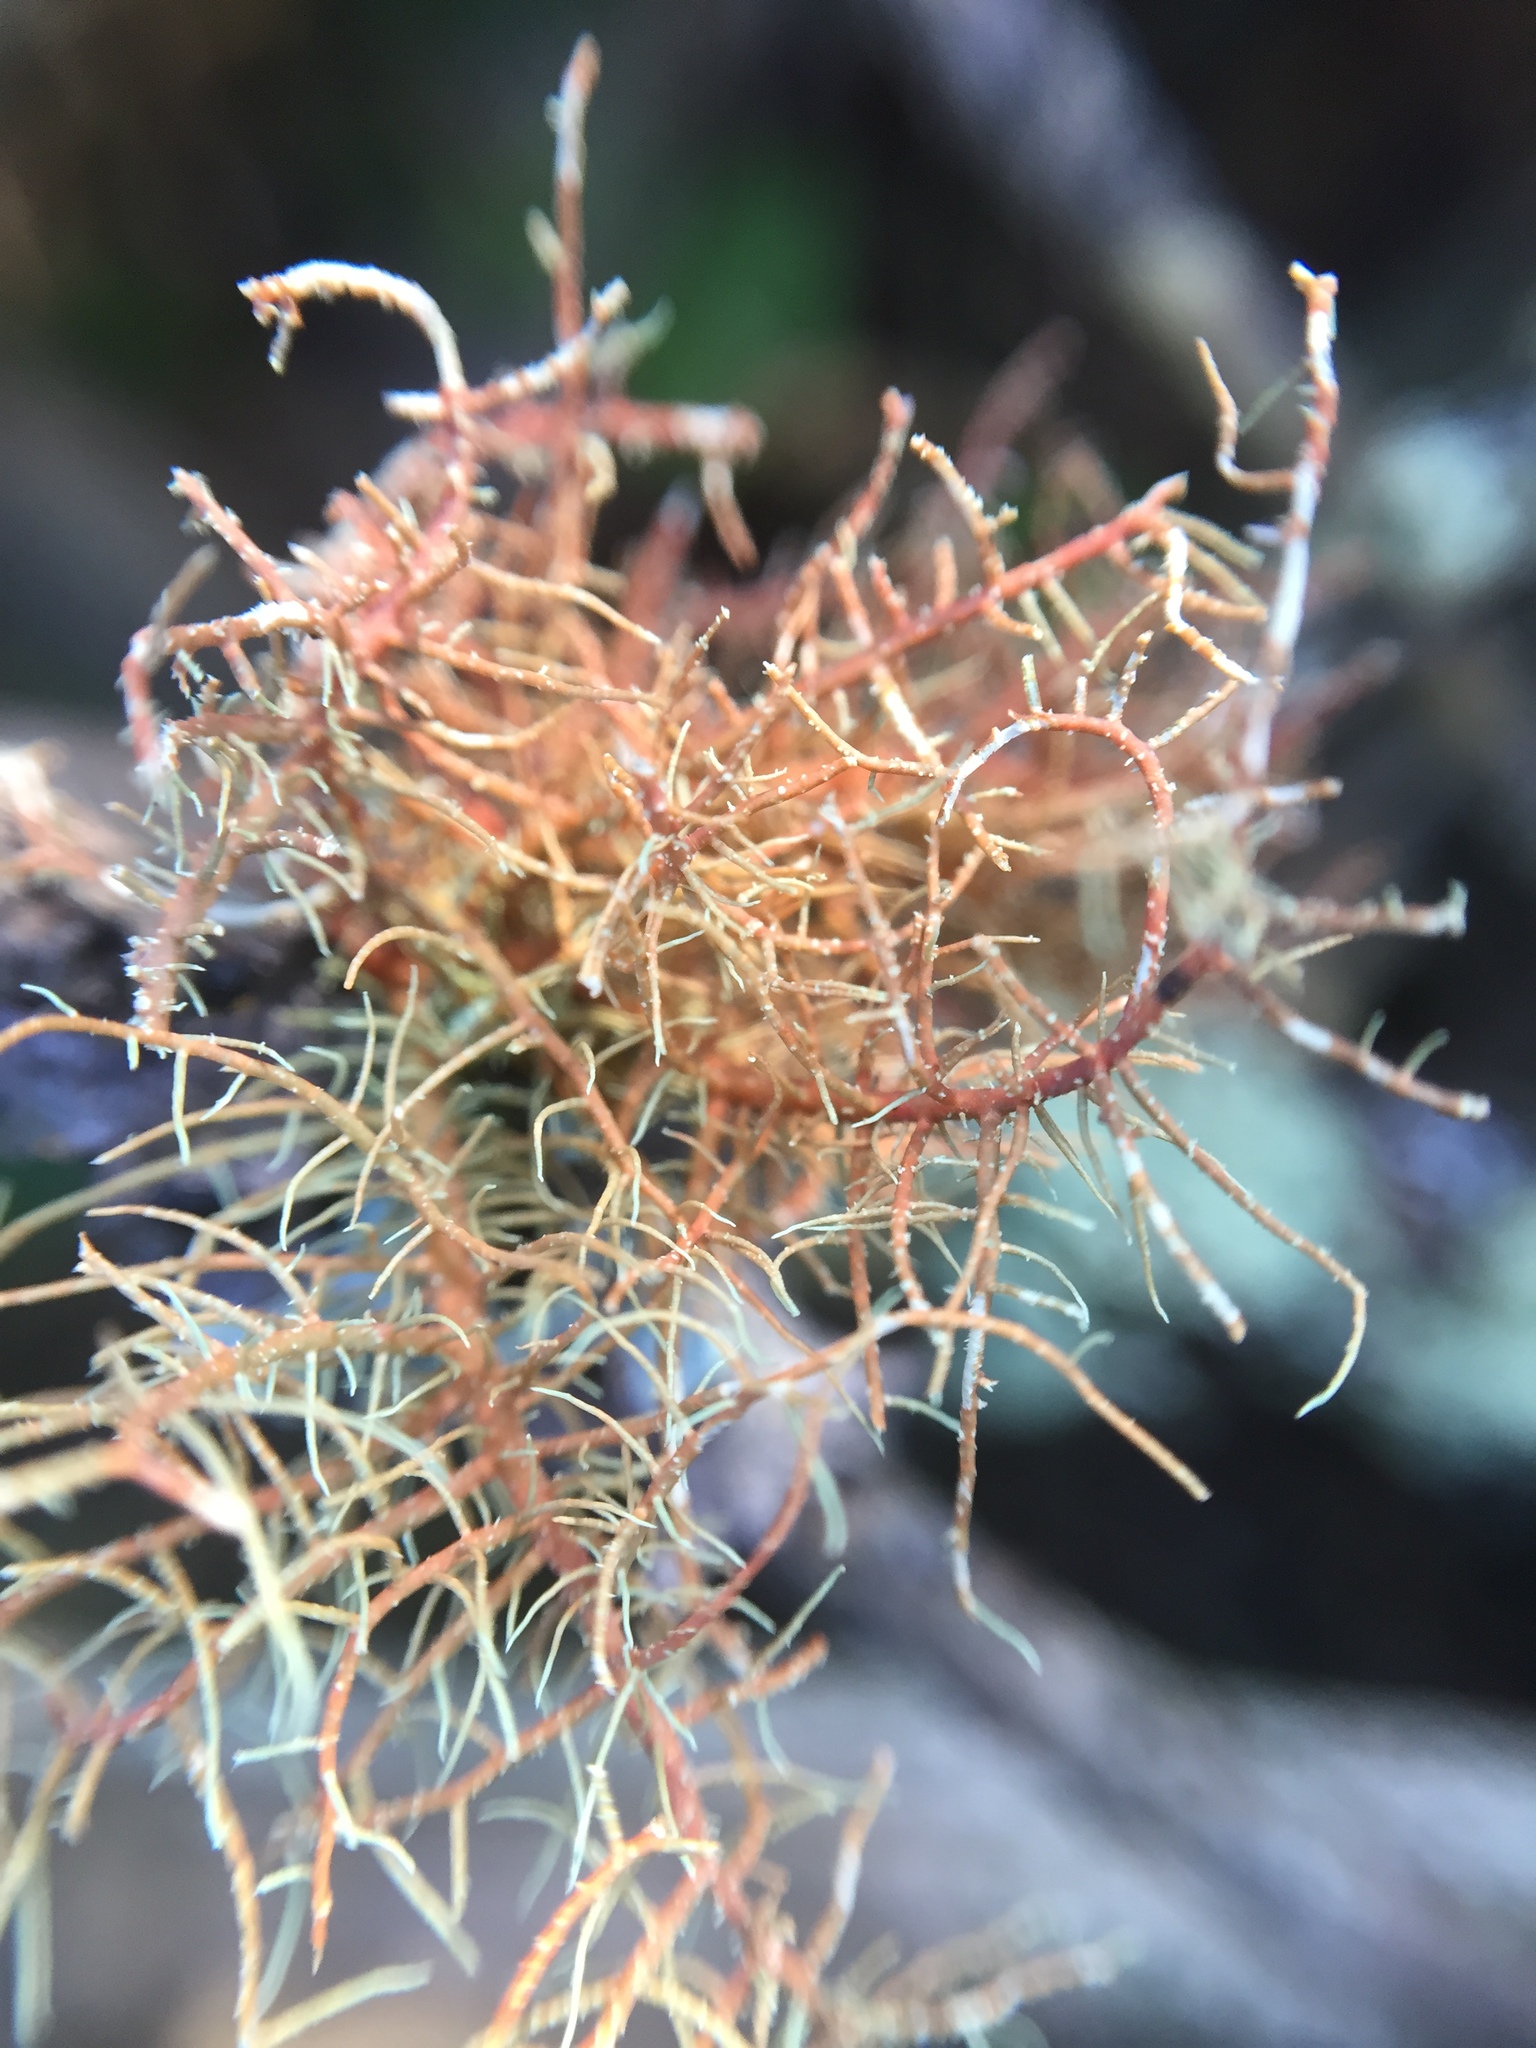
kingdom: Fungi
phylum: Ascomycota
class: Lecanoromycetes
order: Lecanorales
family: Parmeliaceae
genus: Usnea
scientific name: Usnea rubicunda
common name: Red beard lichen
